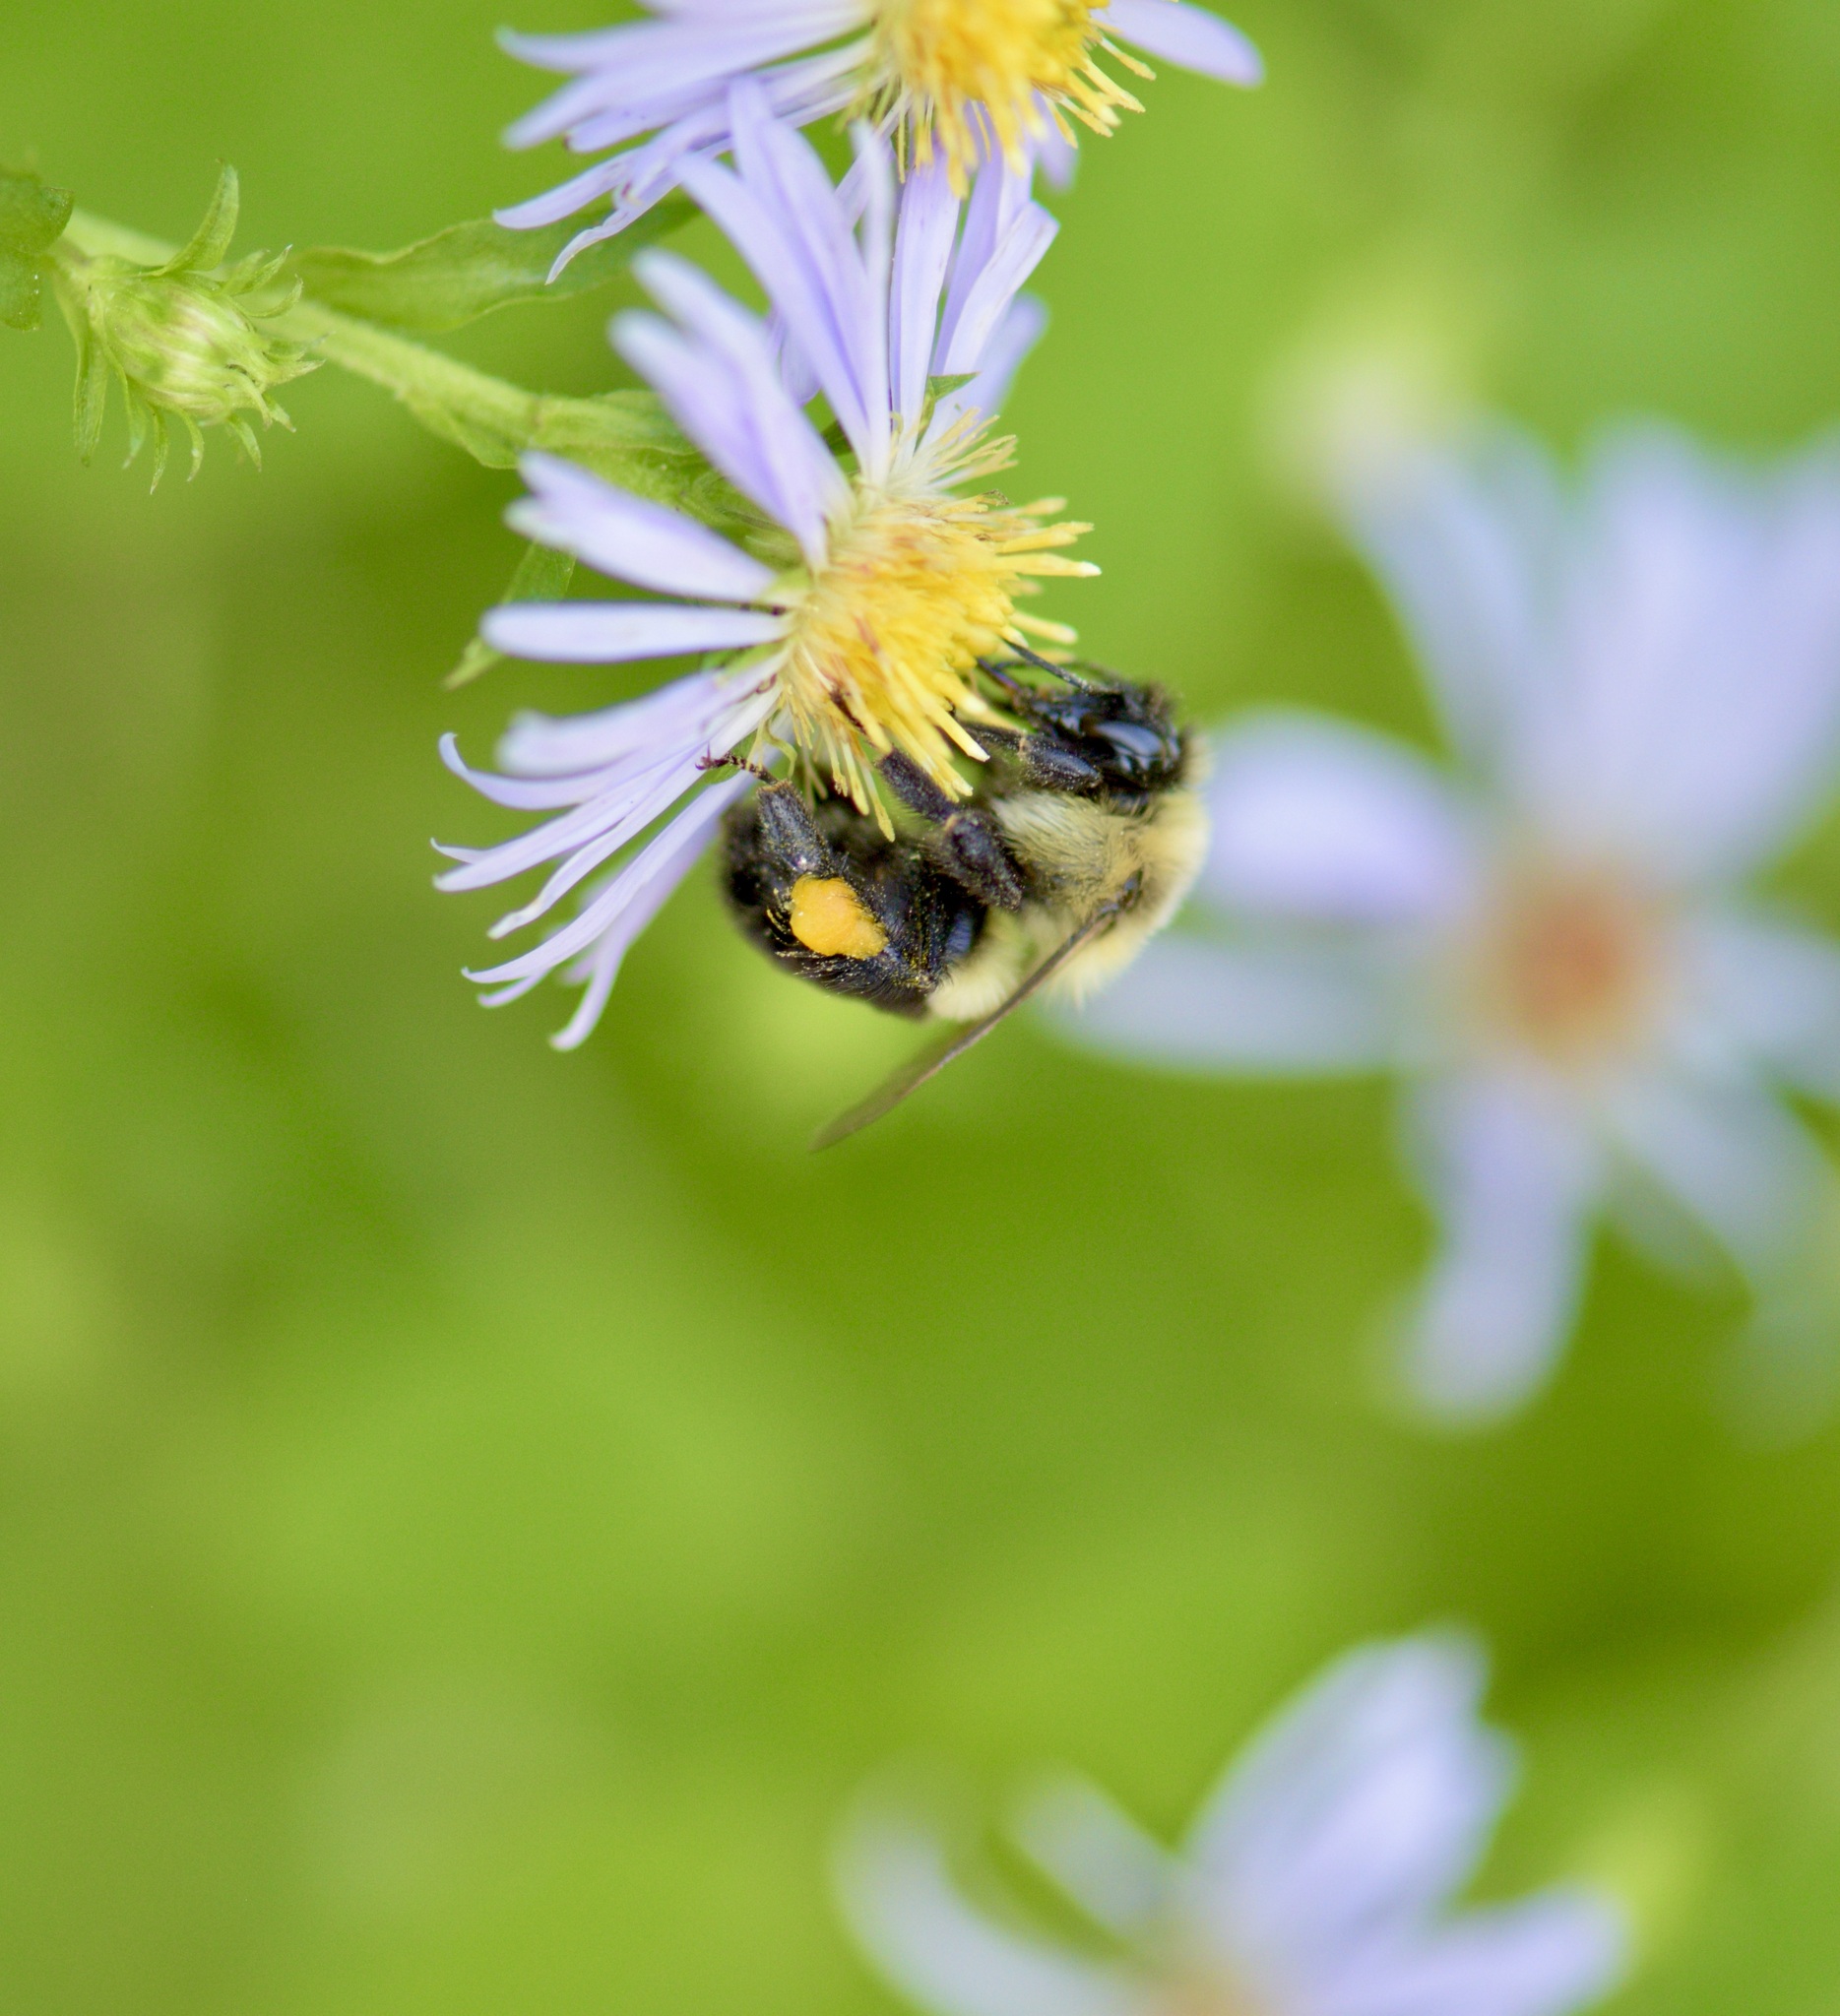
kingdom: Animalia
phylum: Arthropoda
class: Insecta
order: Hymenoptera
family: Apidae
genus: Bombus
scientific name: Bombus impatiens
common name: Common eastern bumble bee
